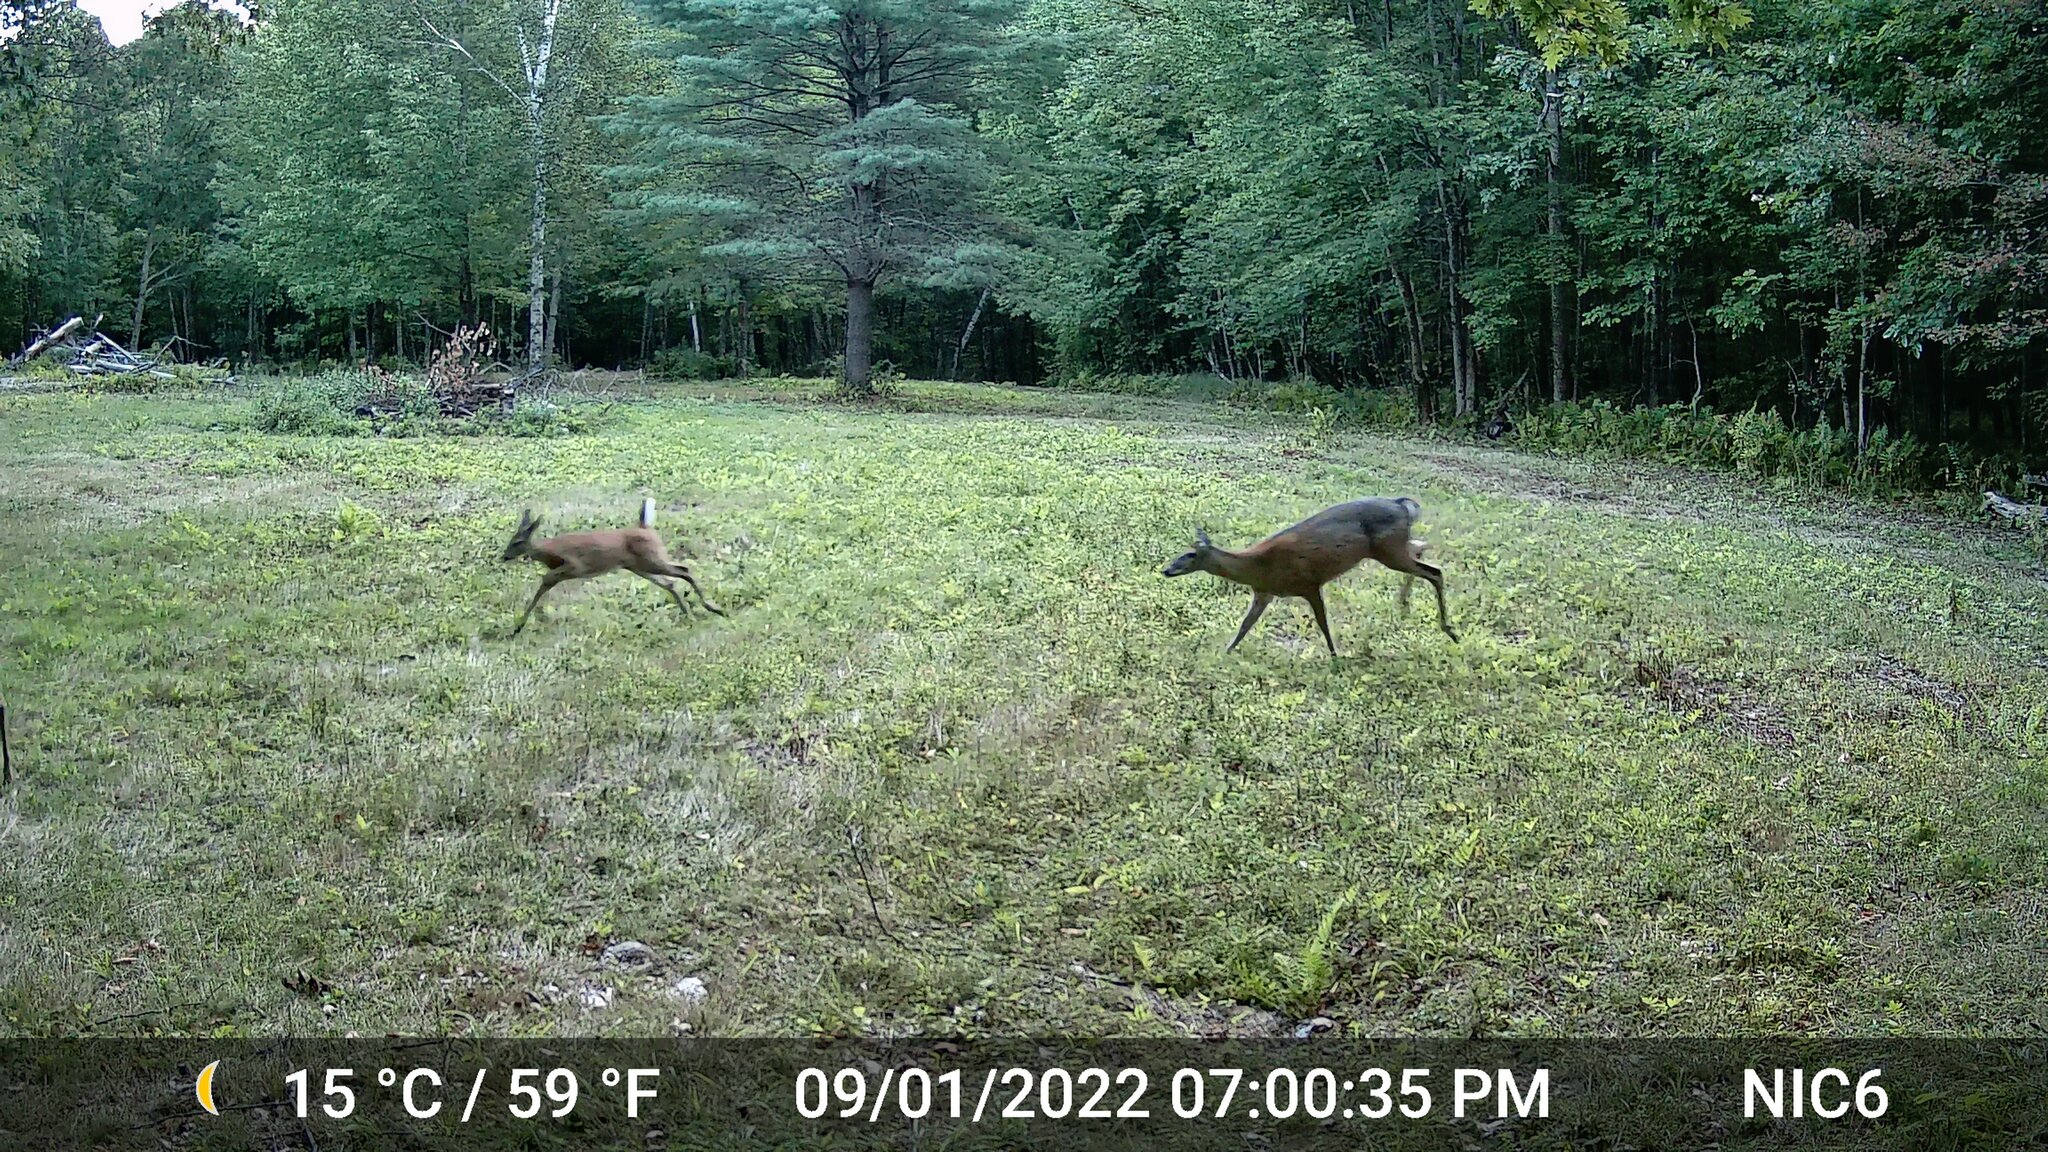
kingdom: Animalia
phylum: Chordata
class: Mammalia
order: Artiodactyla
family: Cervidae
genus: Odocoileus
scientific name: Odocoileus virginianus
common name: White-tailed deer
